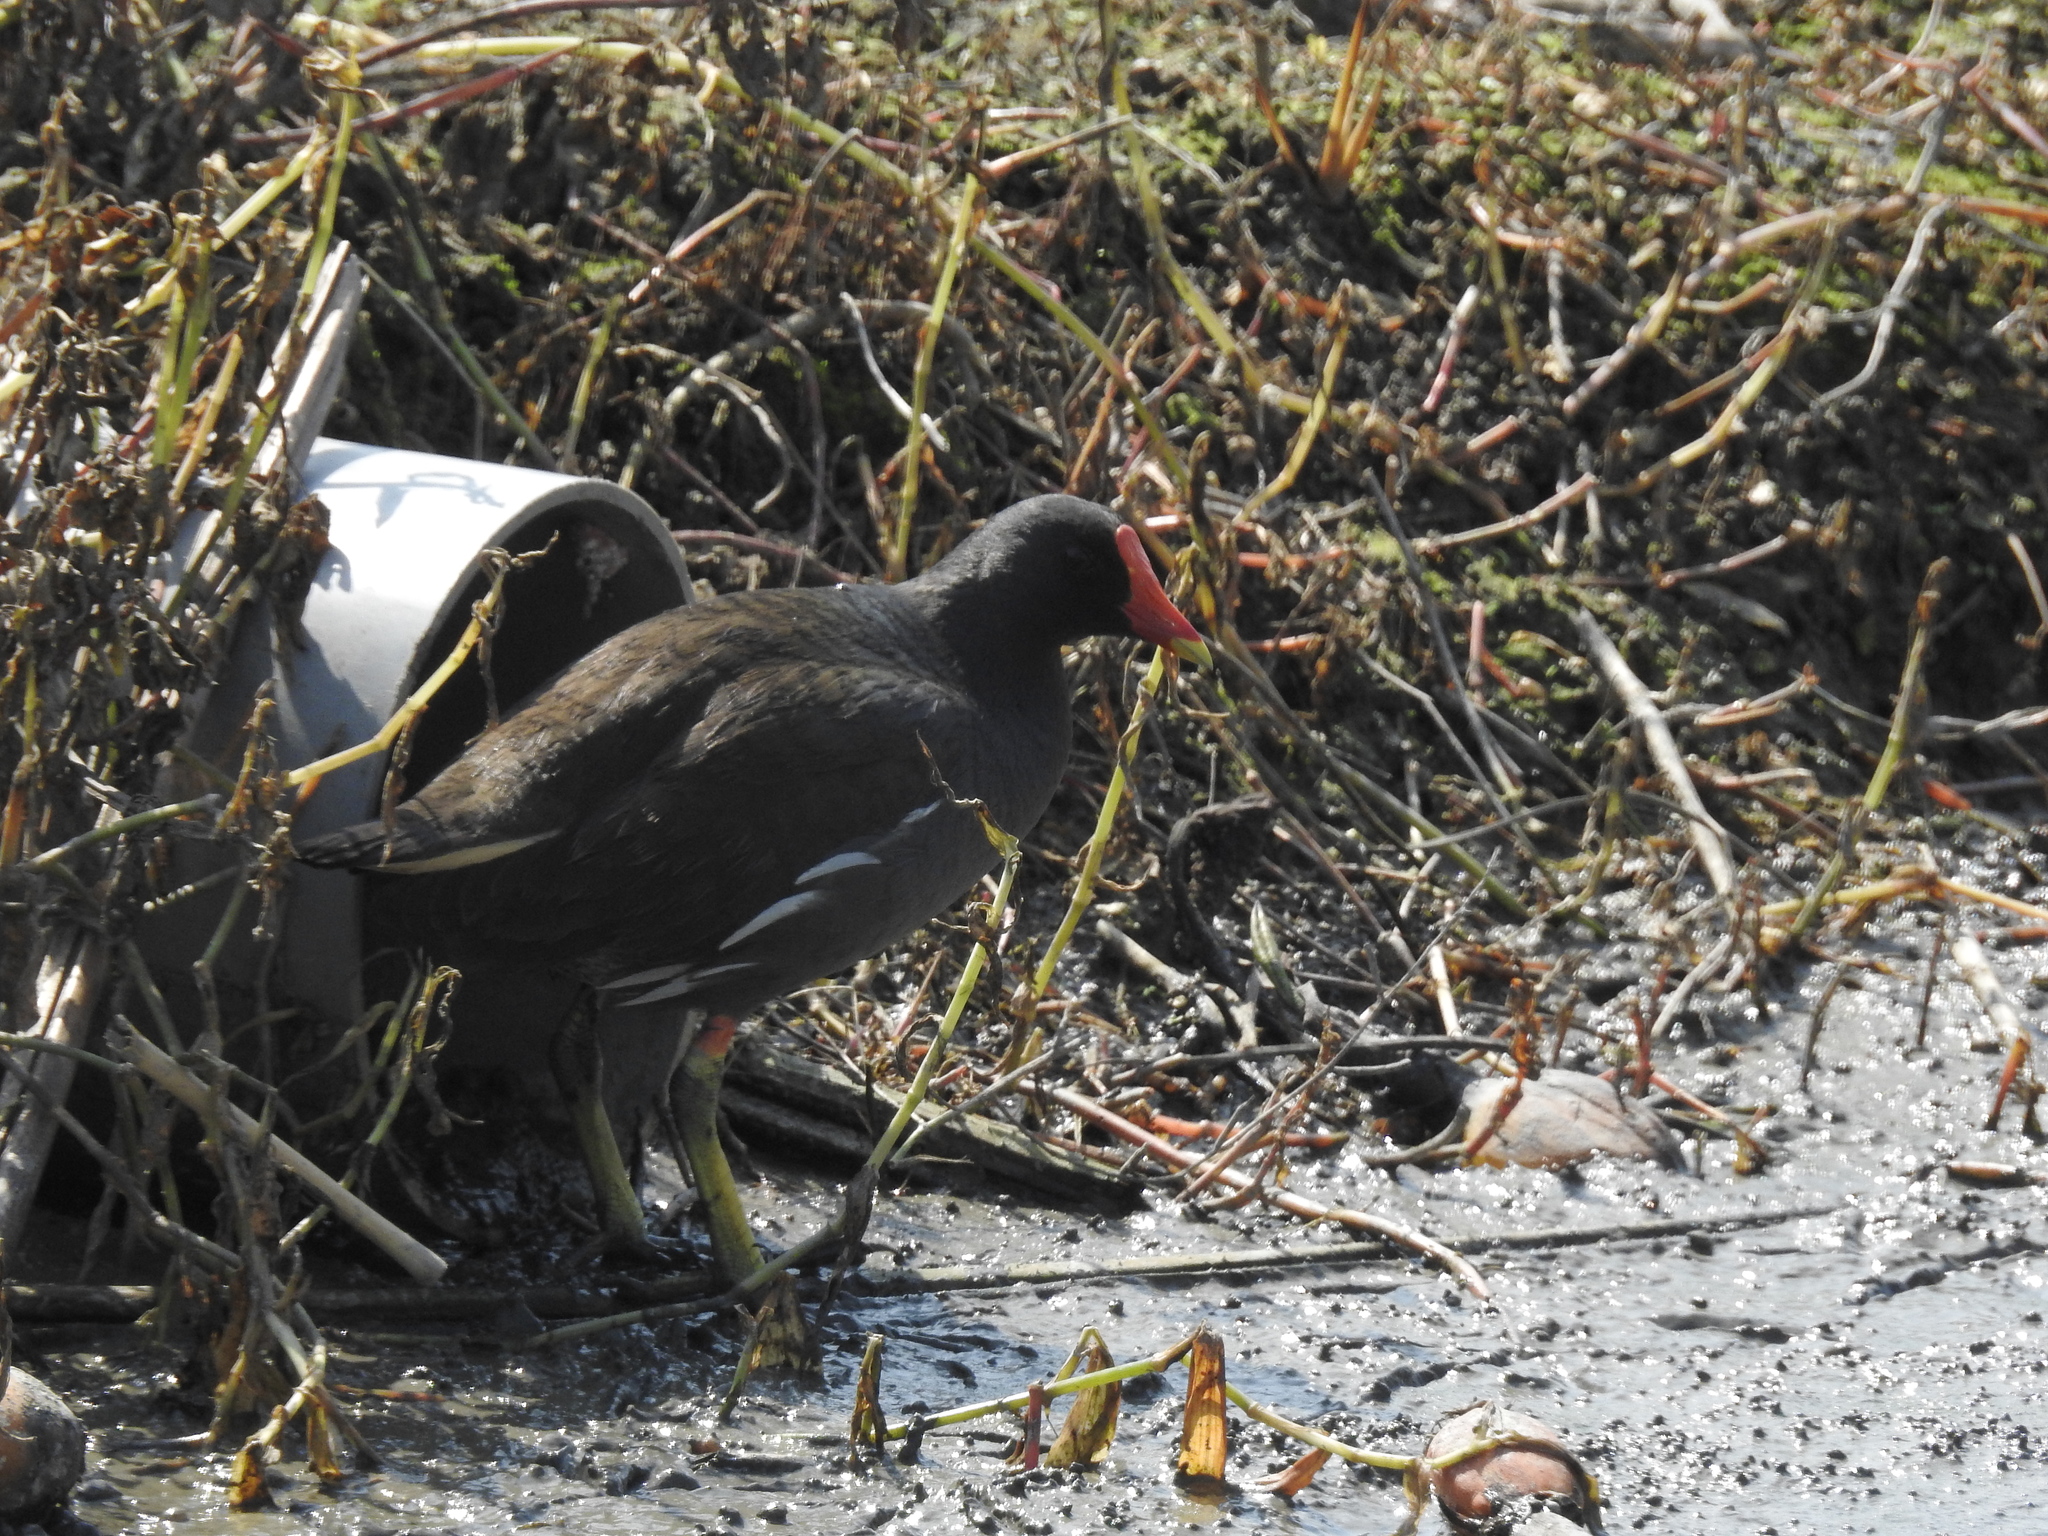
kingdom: Animalia
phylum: Chordata
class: Aves
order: Gruiformes
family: Rallidae
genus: Gallinula
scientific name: Gallinula chloropus
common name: Common moorhen
